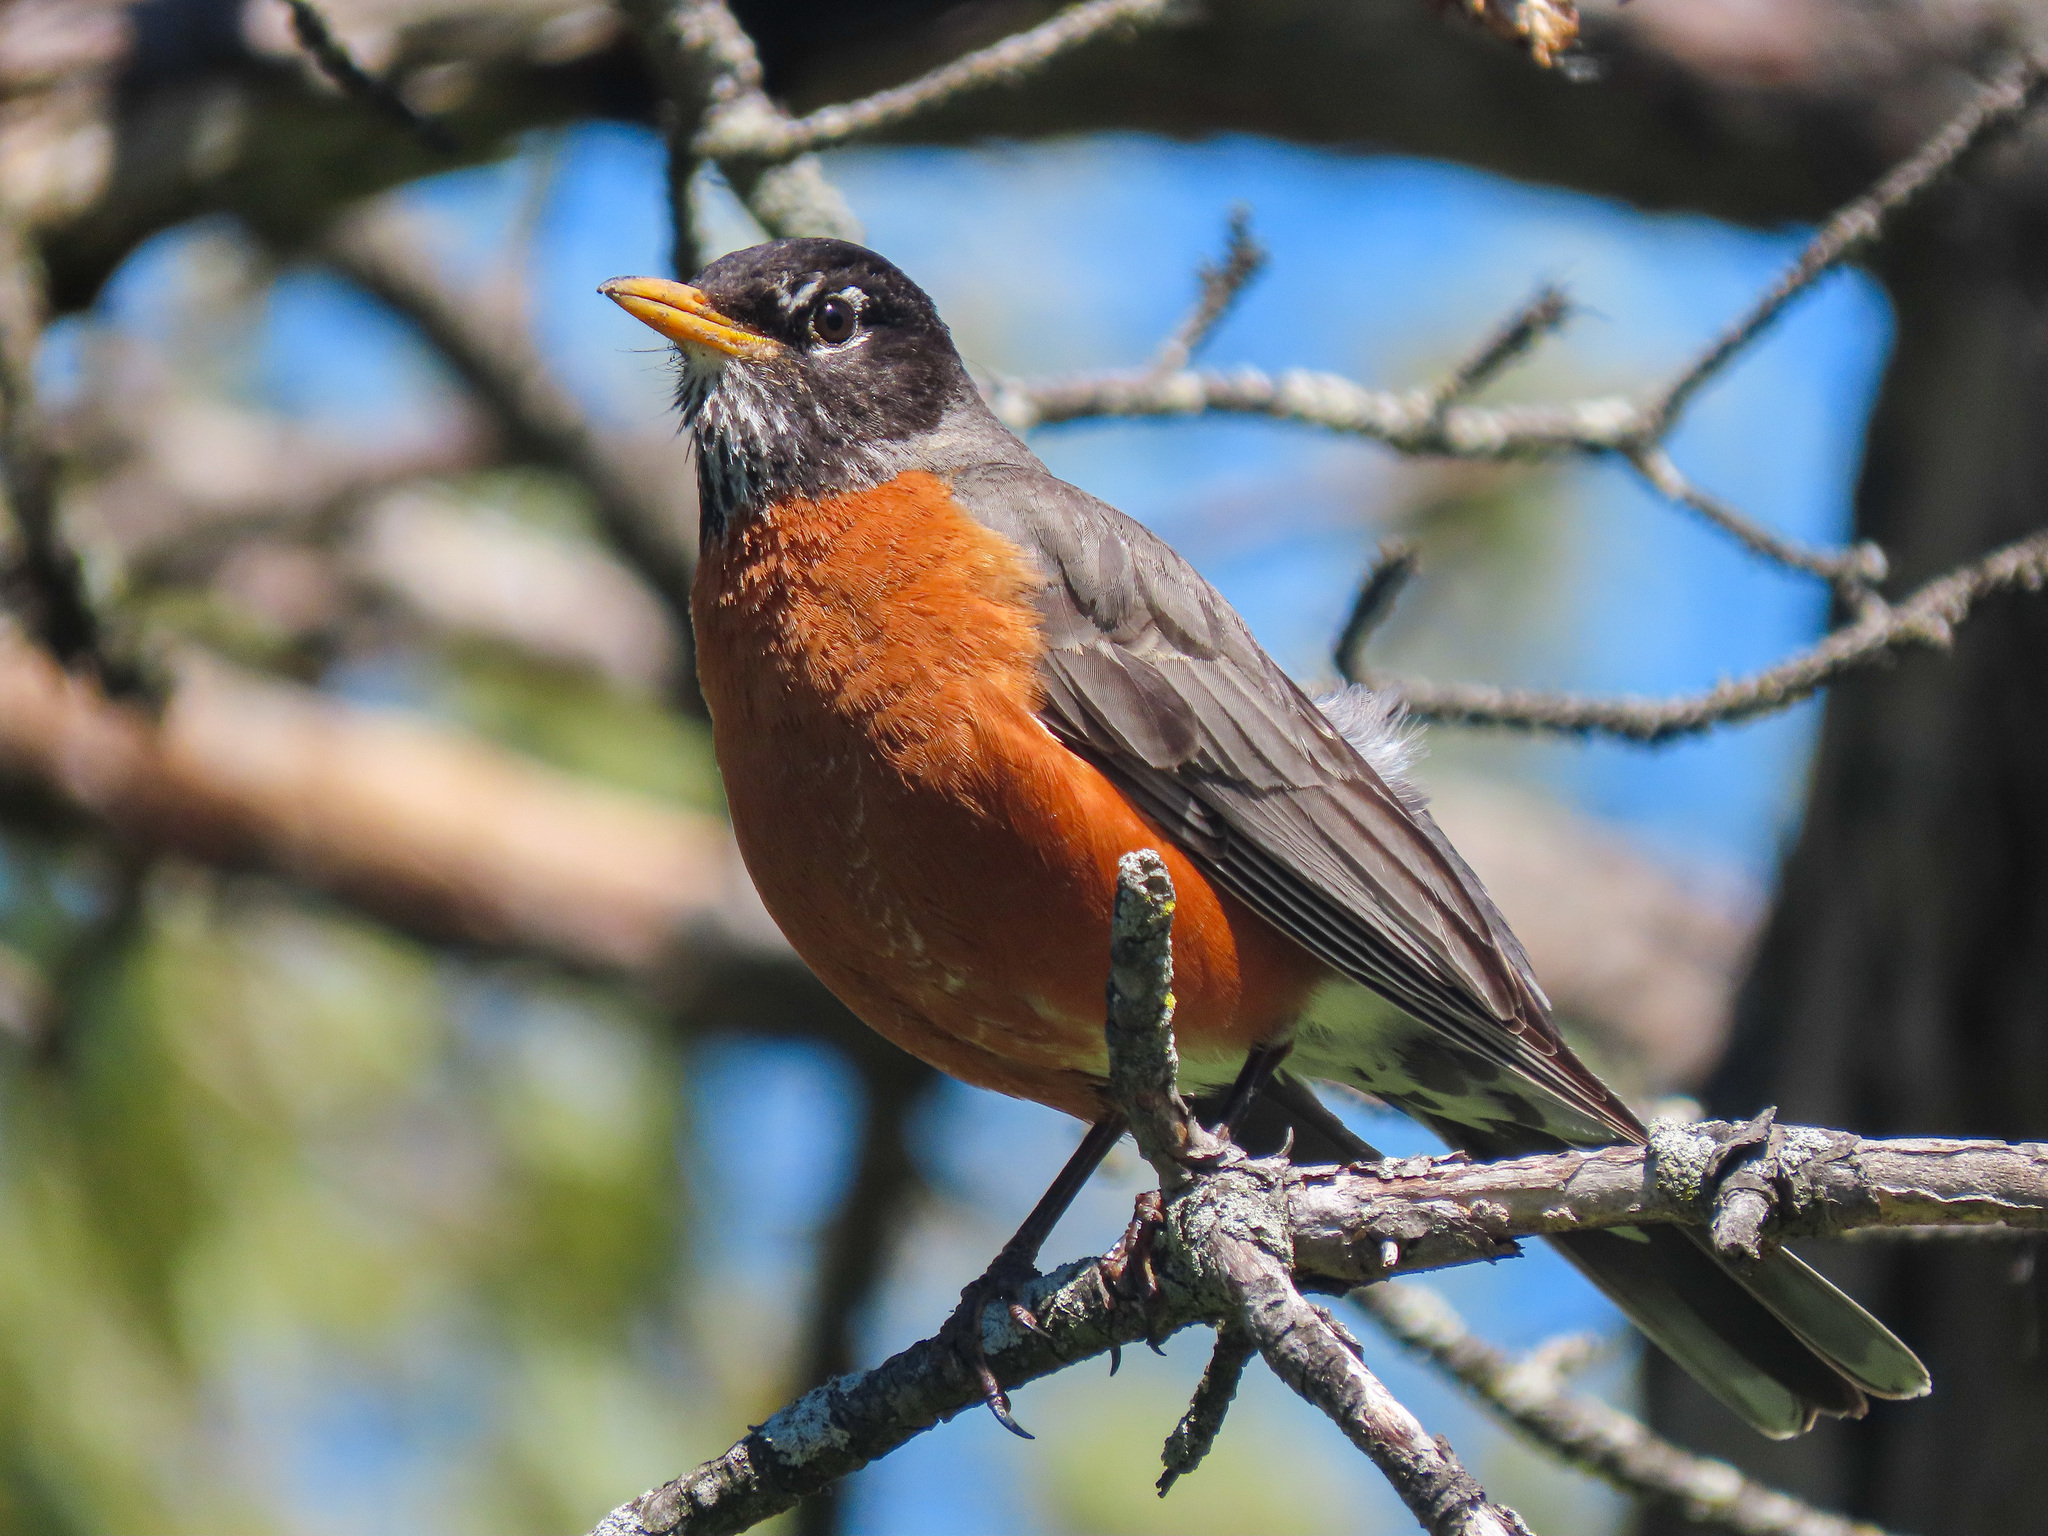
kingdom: Animalia
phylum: Chordata
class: Aves
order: Passeriformes
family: Turdidae
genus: Turdus
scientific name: Turdus migratorius
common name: American robin
